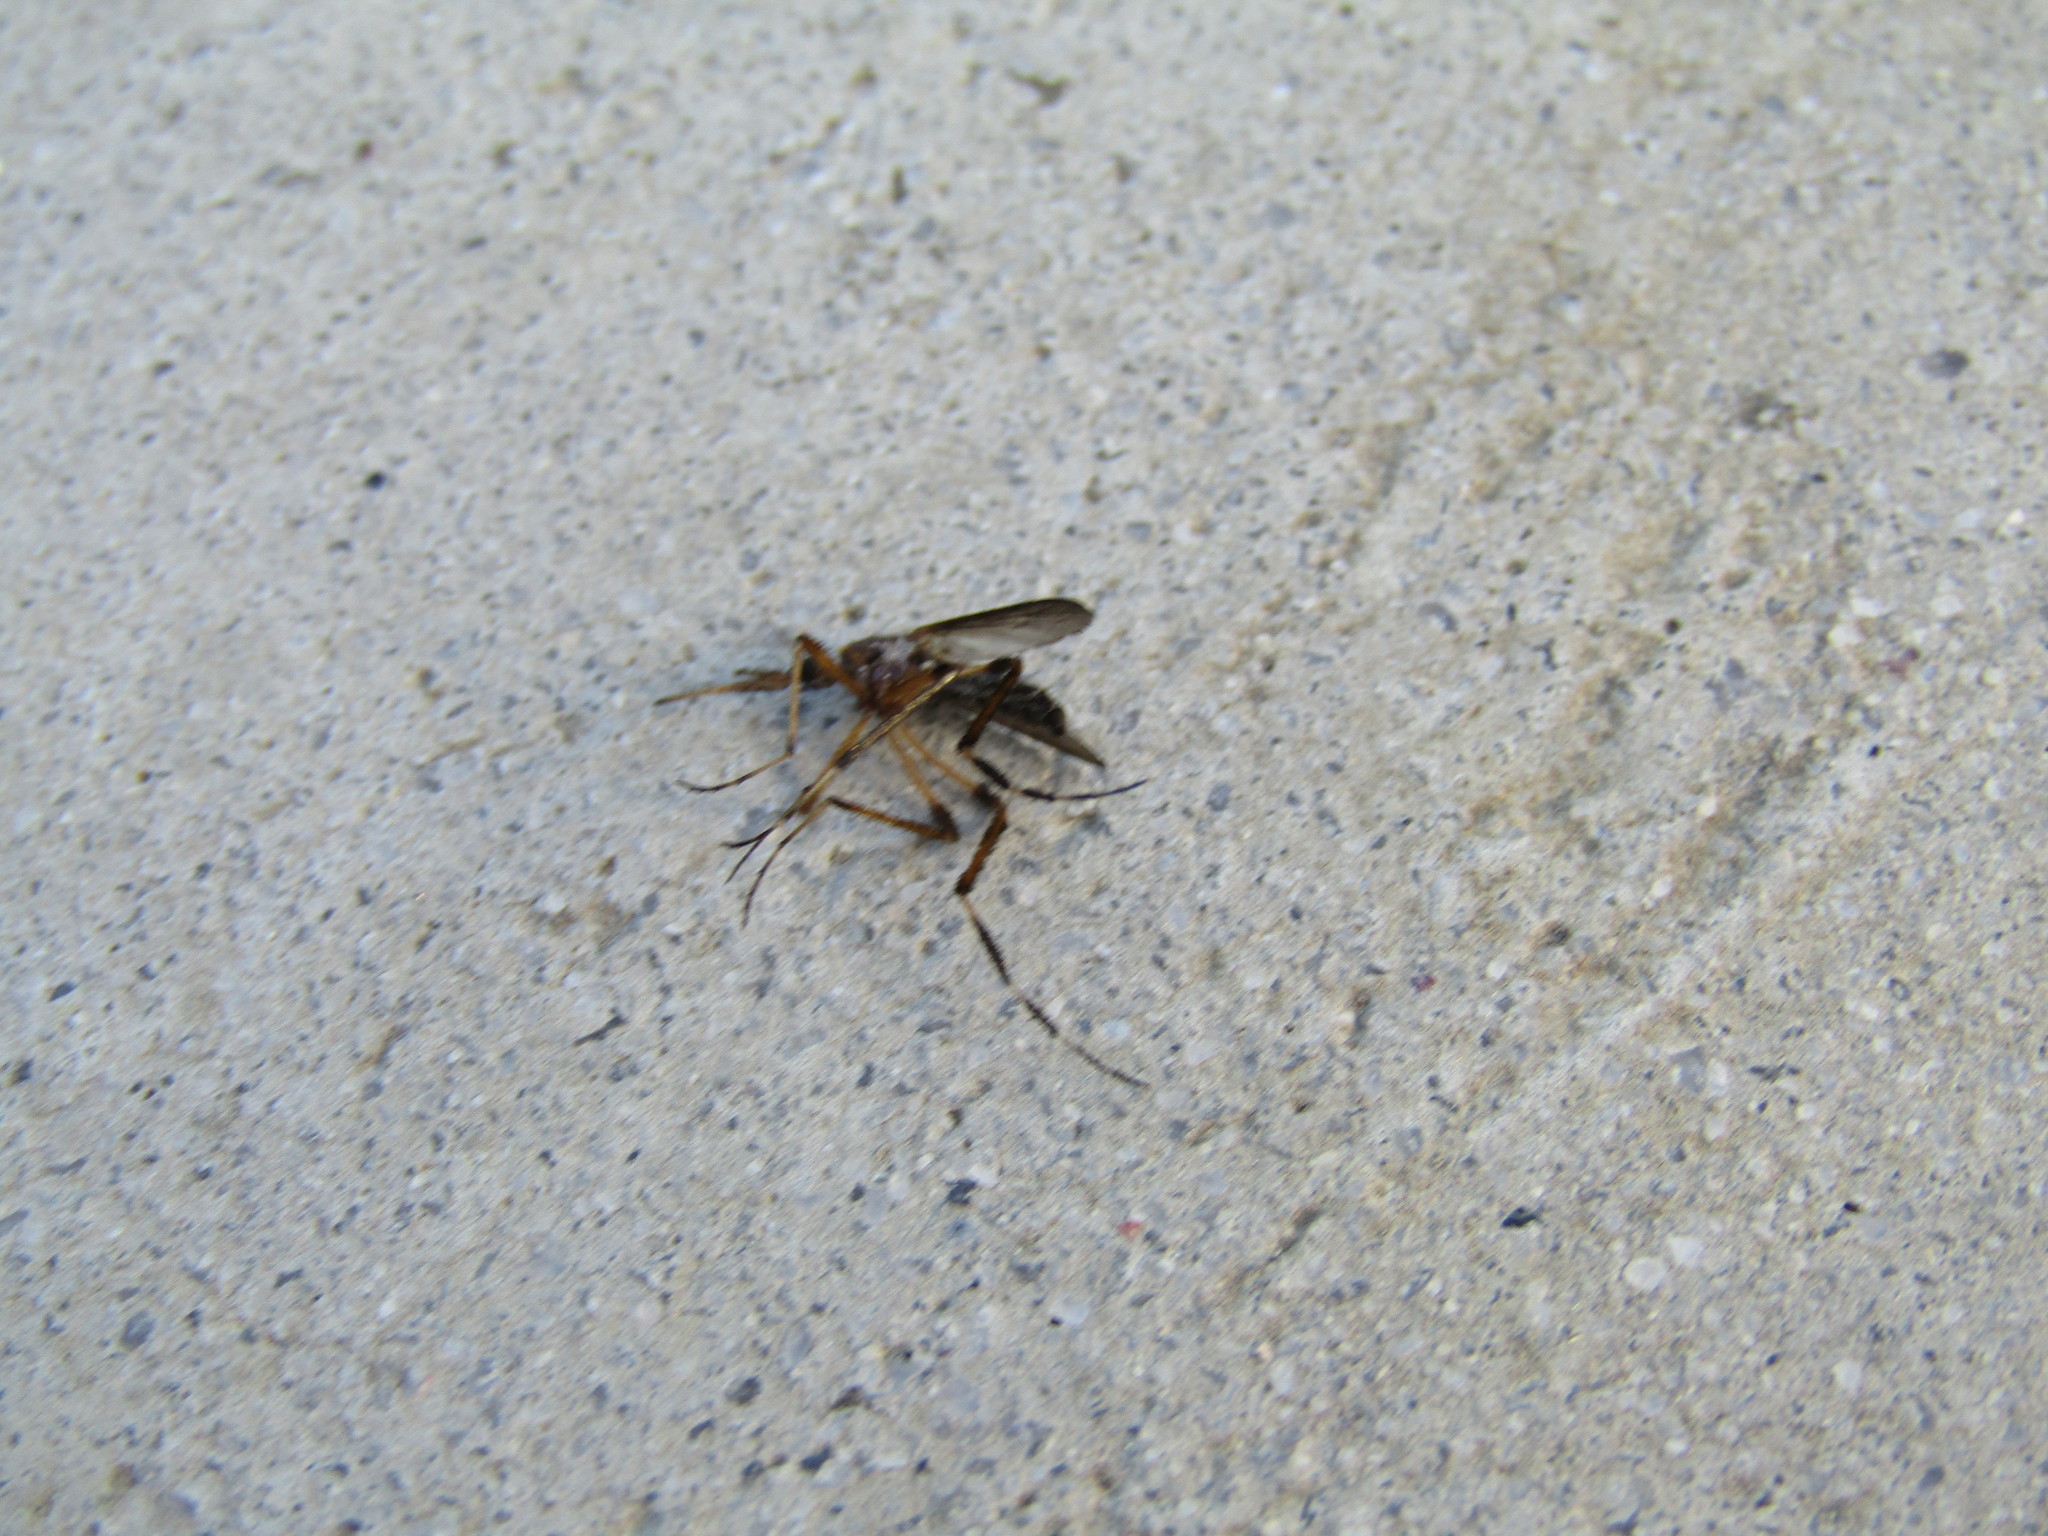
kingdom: Animalia
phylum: Arthropoda
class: Insecta
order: Diptera
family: Culicidae
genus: Psorophora
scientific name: Psorophora ciliata
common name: Gallinipper
